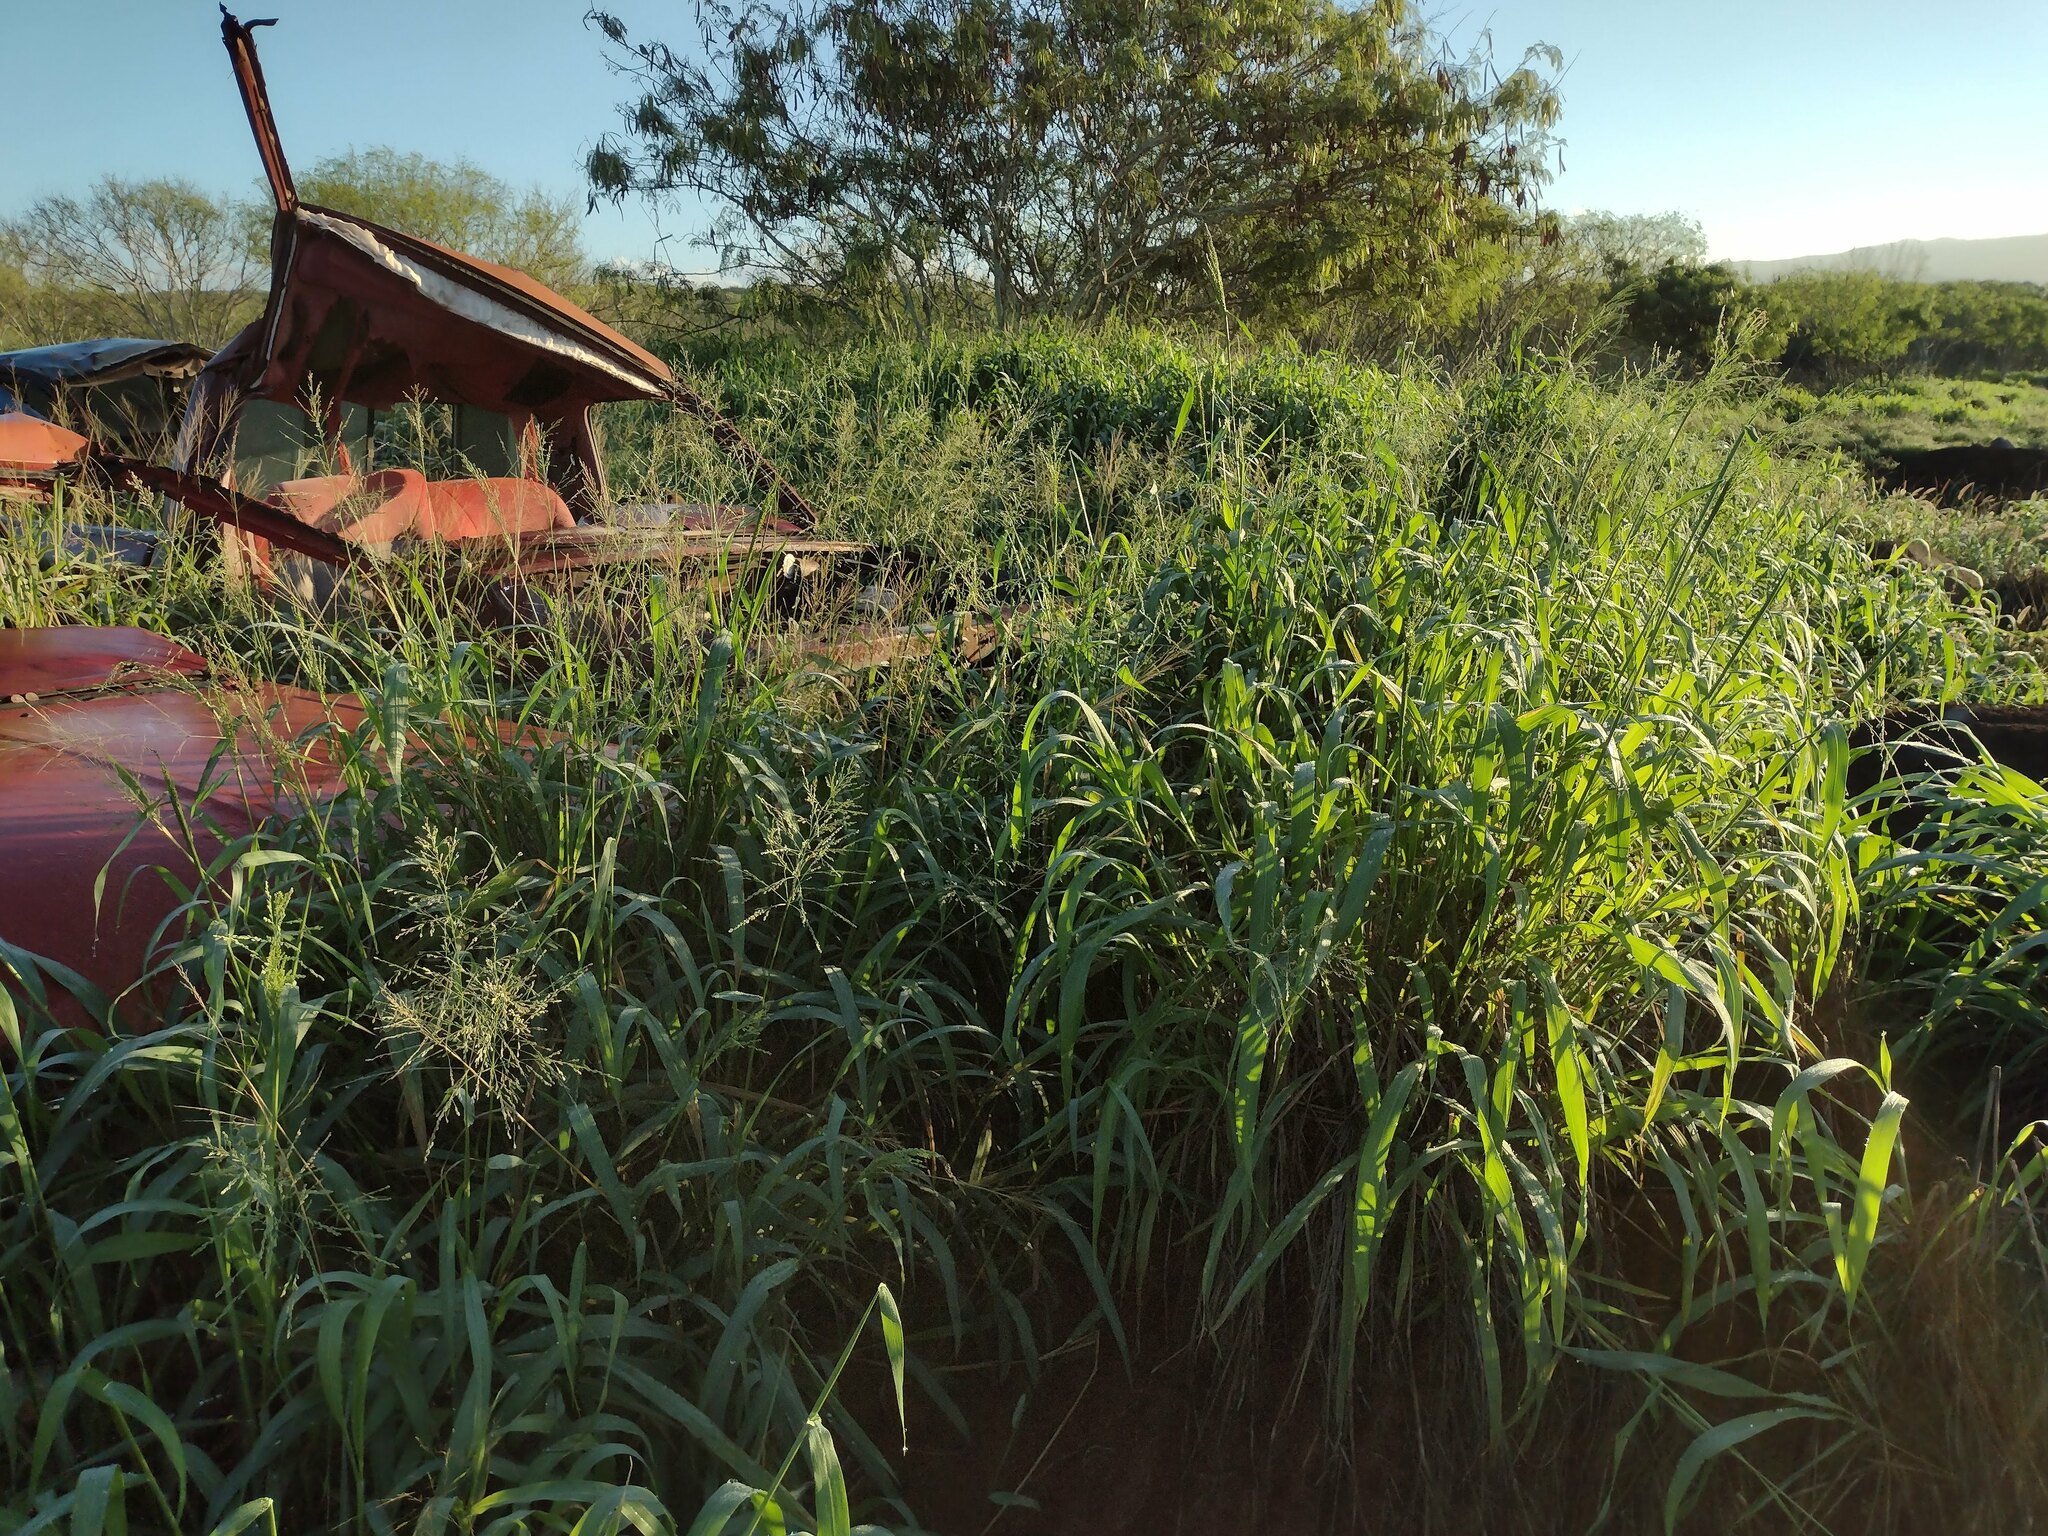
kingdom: Plantae
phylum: Tracheophyta
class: Liliopsida
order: Poales
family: Poaceae
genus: Megathyrsus
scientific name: Megathyrsus maximus
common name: Guineagrass
